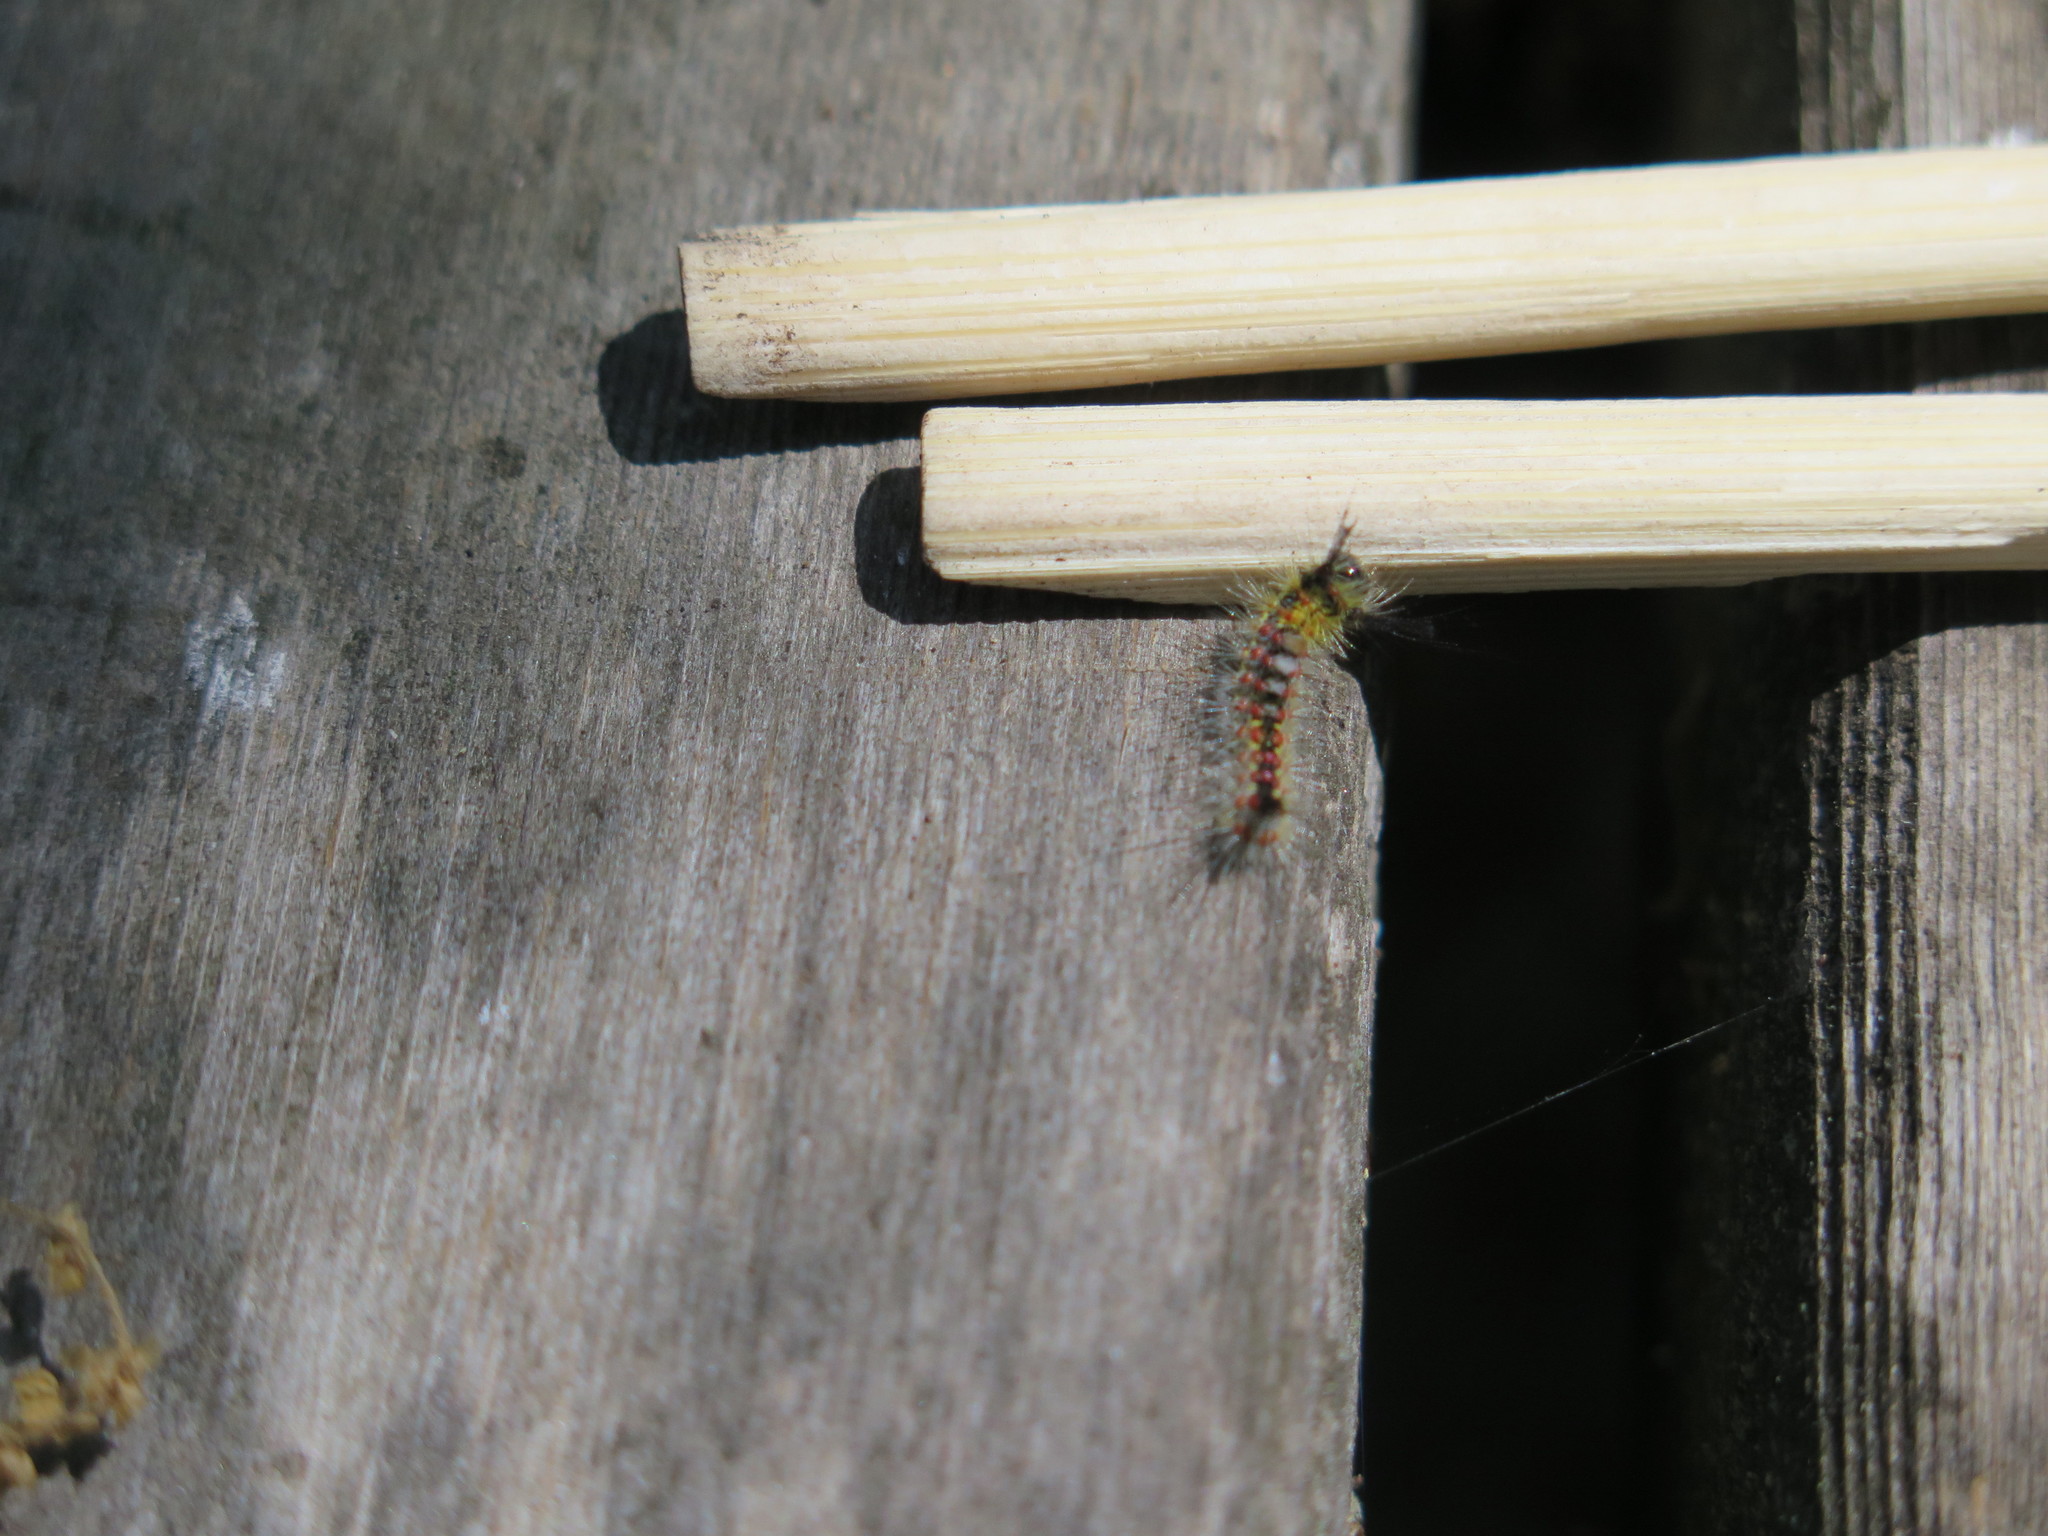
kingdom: Animalia
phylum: Arthropoda
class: Insecta
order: Lepidoptera
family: Erebidae
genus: Orgyia
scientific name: Orgyia vetusta
